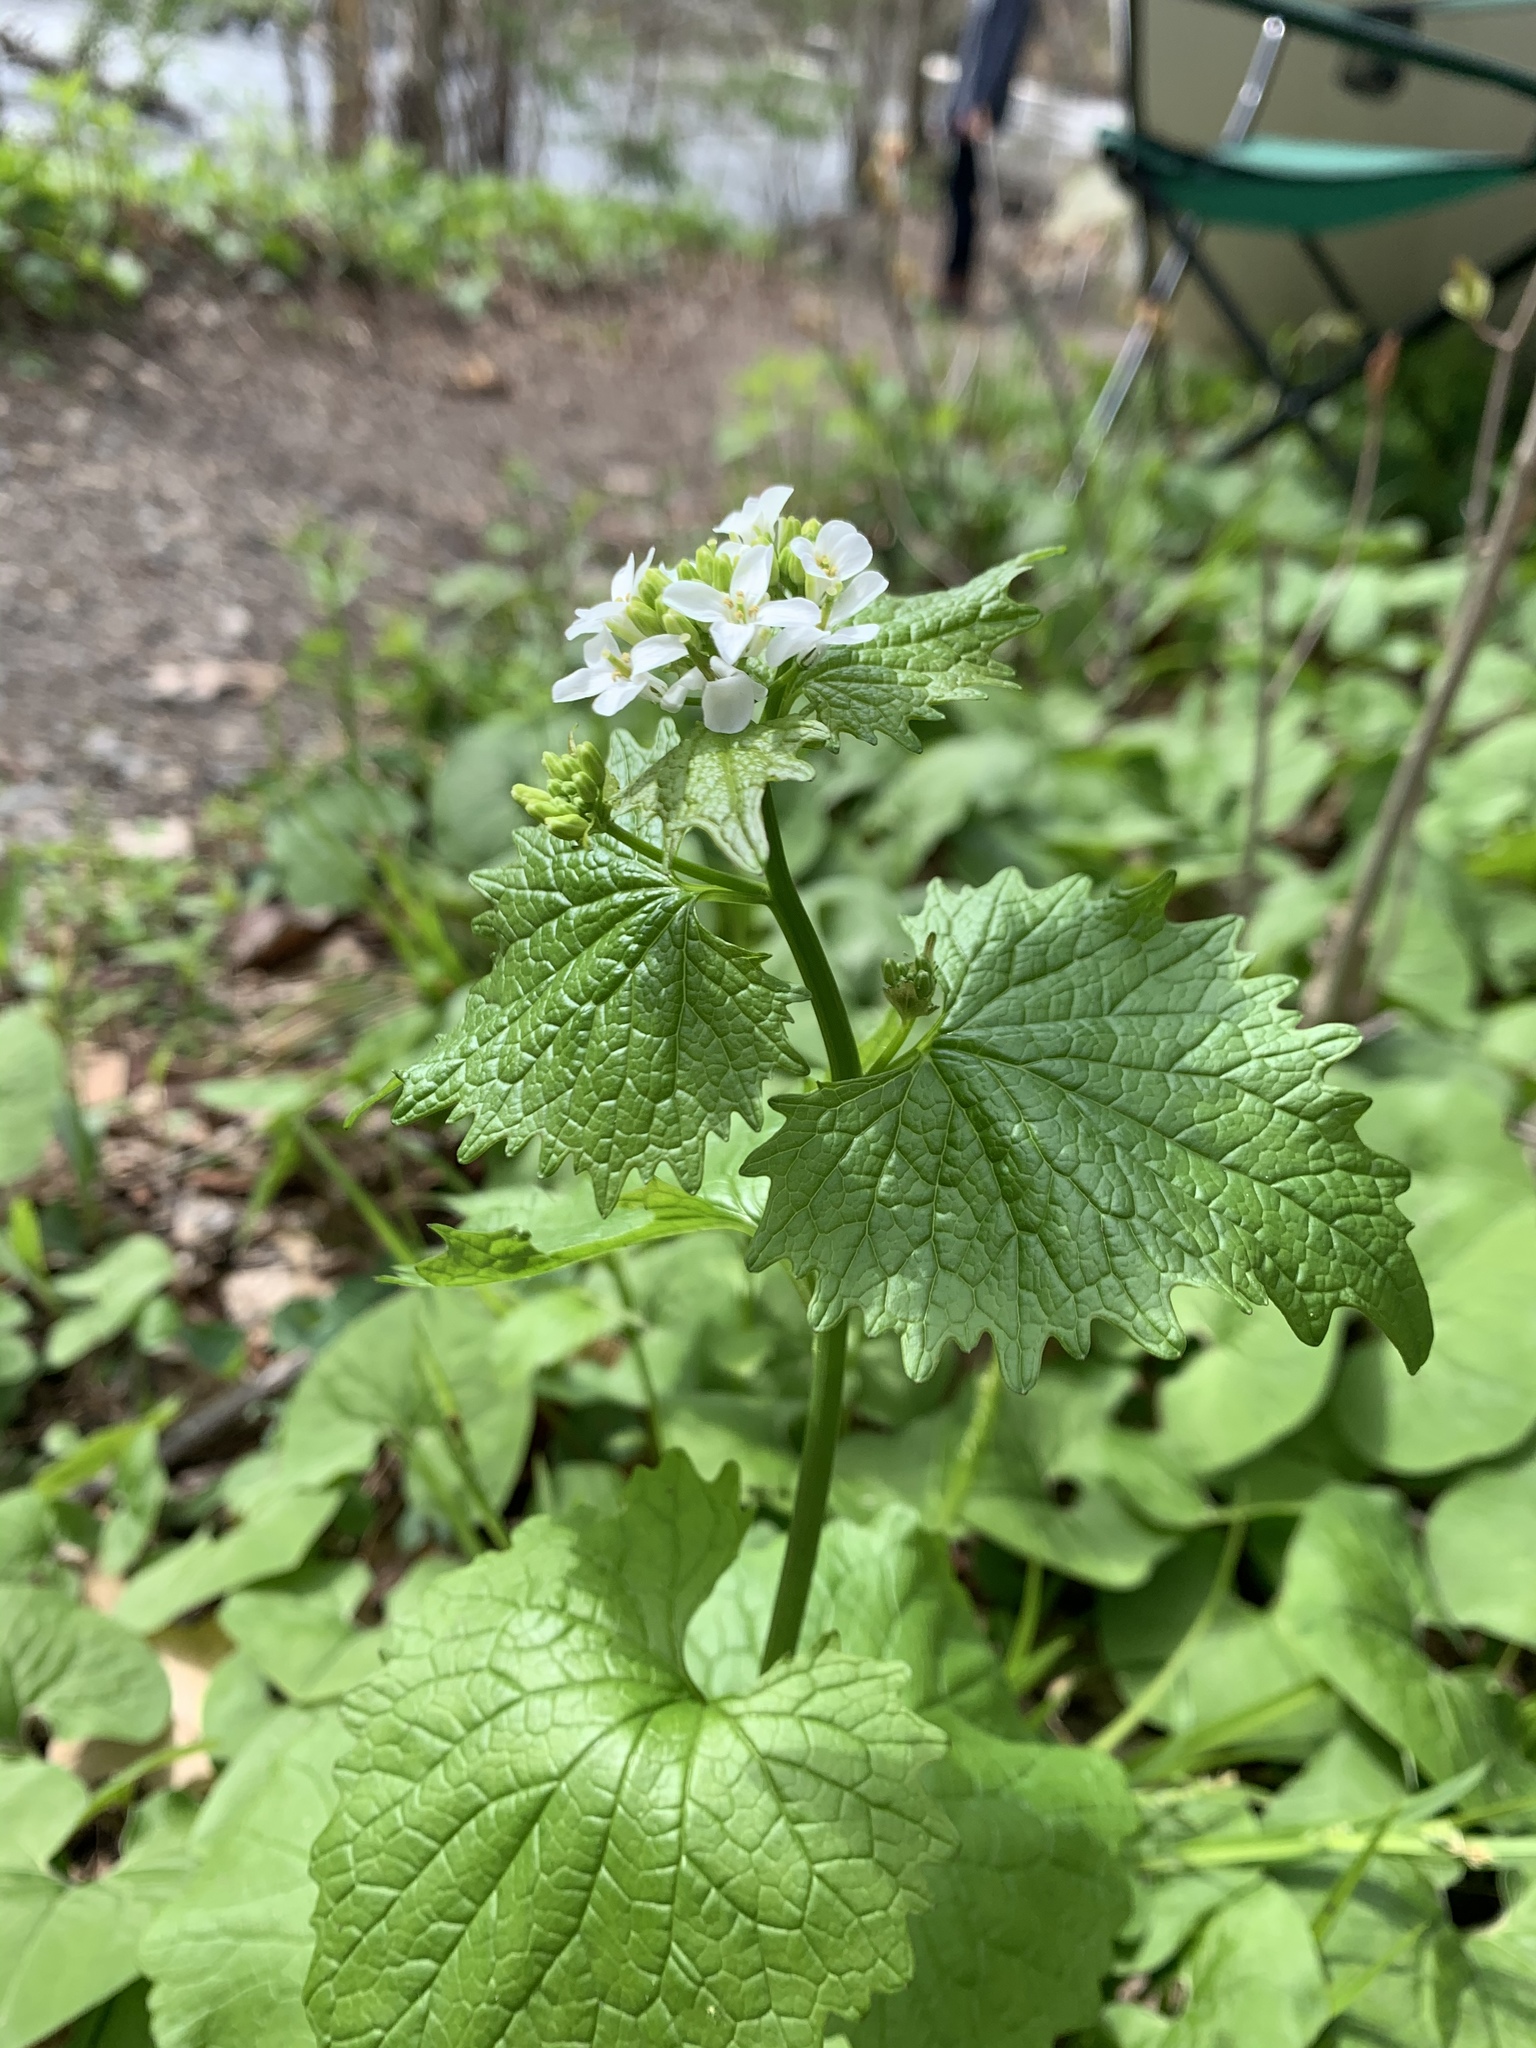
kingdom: Plantae
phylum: Tracheophyta
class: Magnoliopsida
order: Brassicales
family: Brassicaceae
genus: Alliaria
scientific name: Alliaria petiolata
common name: Garlic mustard
